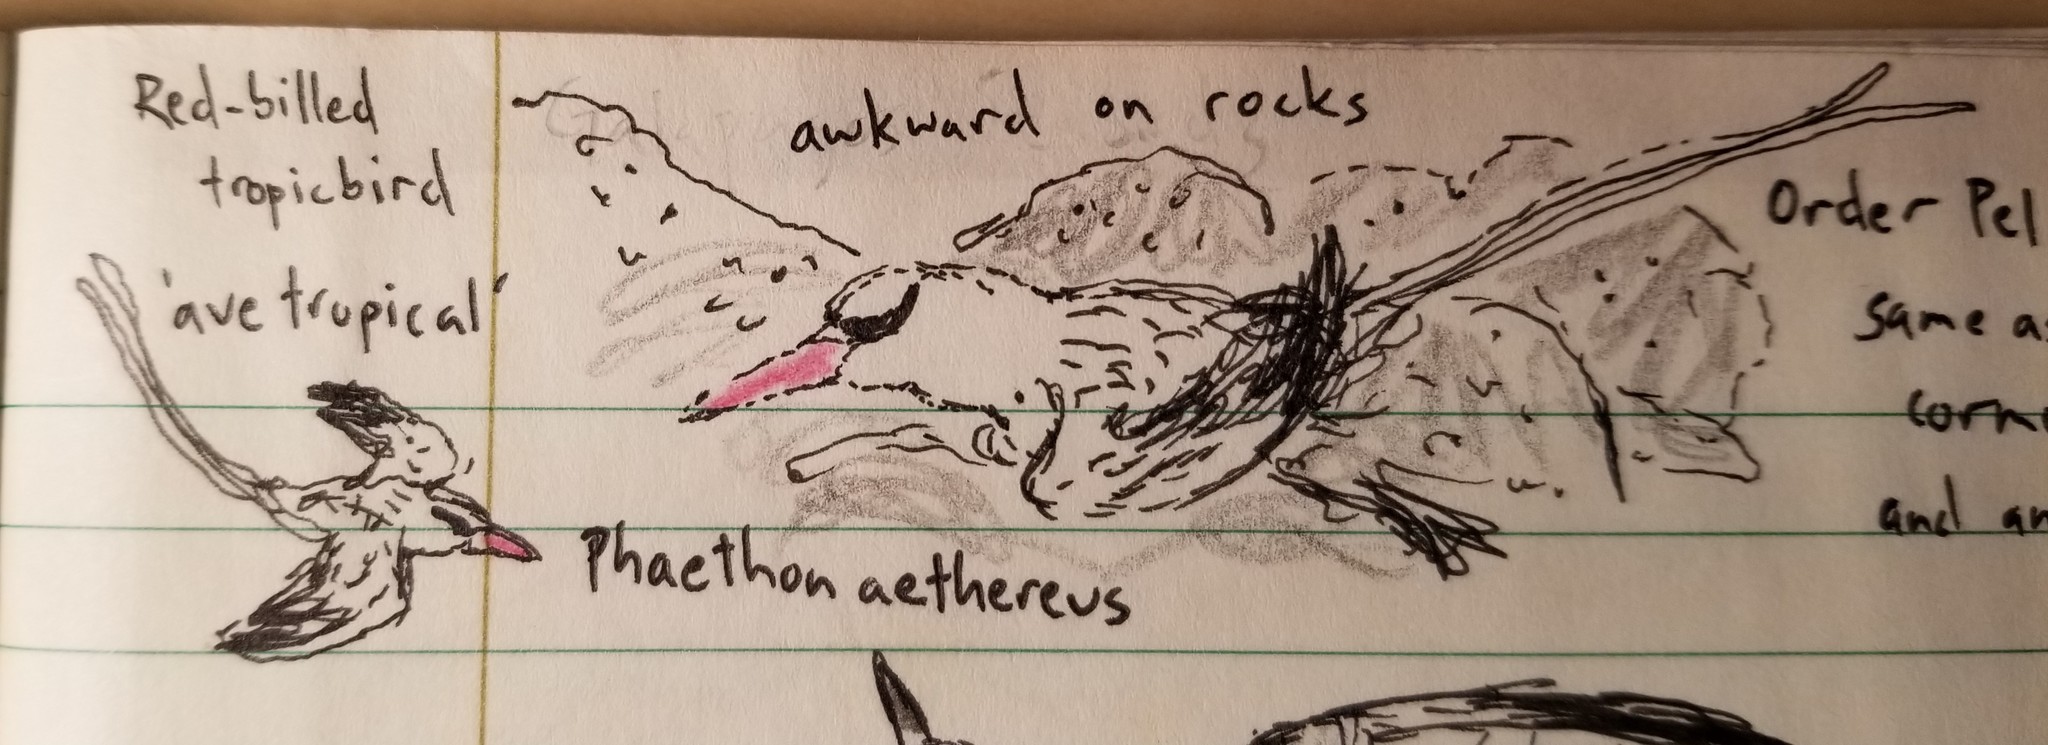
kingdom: Animalia
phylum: Chordata
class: Aves
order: Phaethontiformes
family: Phaethontidae
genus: Phaethon
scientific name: Phaethon aethereus
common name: Red-billed tropicbird
